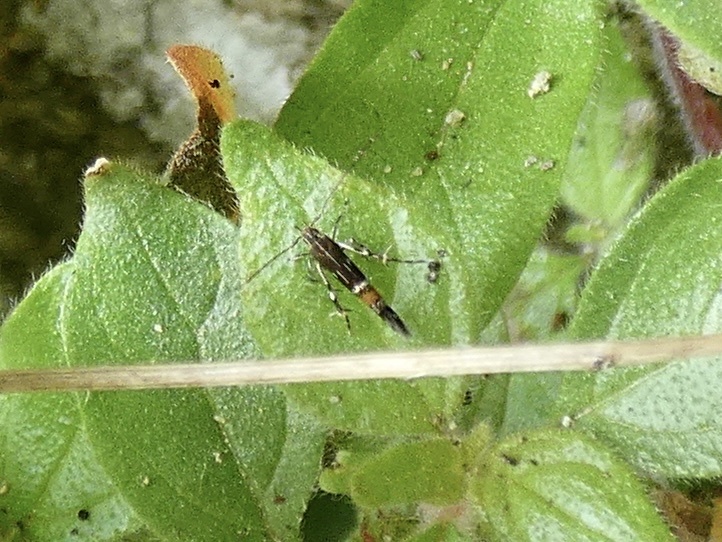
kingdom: Animalia
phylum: Arthropoda
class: Insecta
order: Lepidoptera
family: Cosmopterigidae
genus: Cosmopterix
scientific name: Cosmopterix pulchrimella
